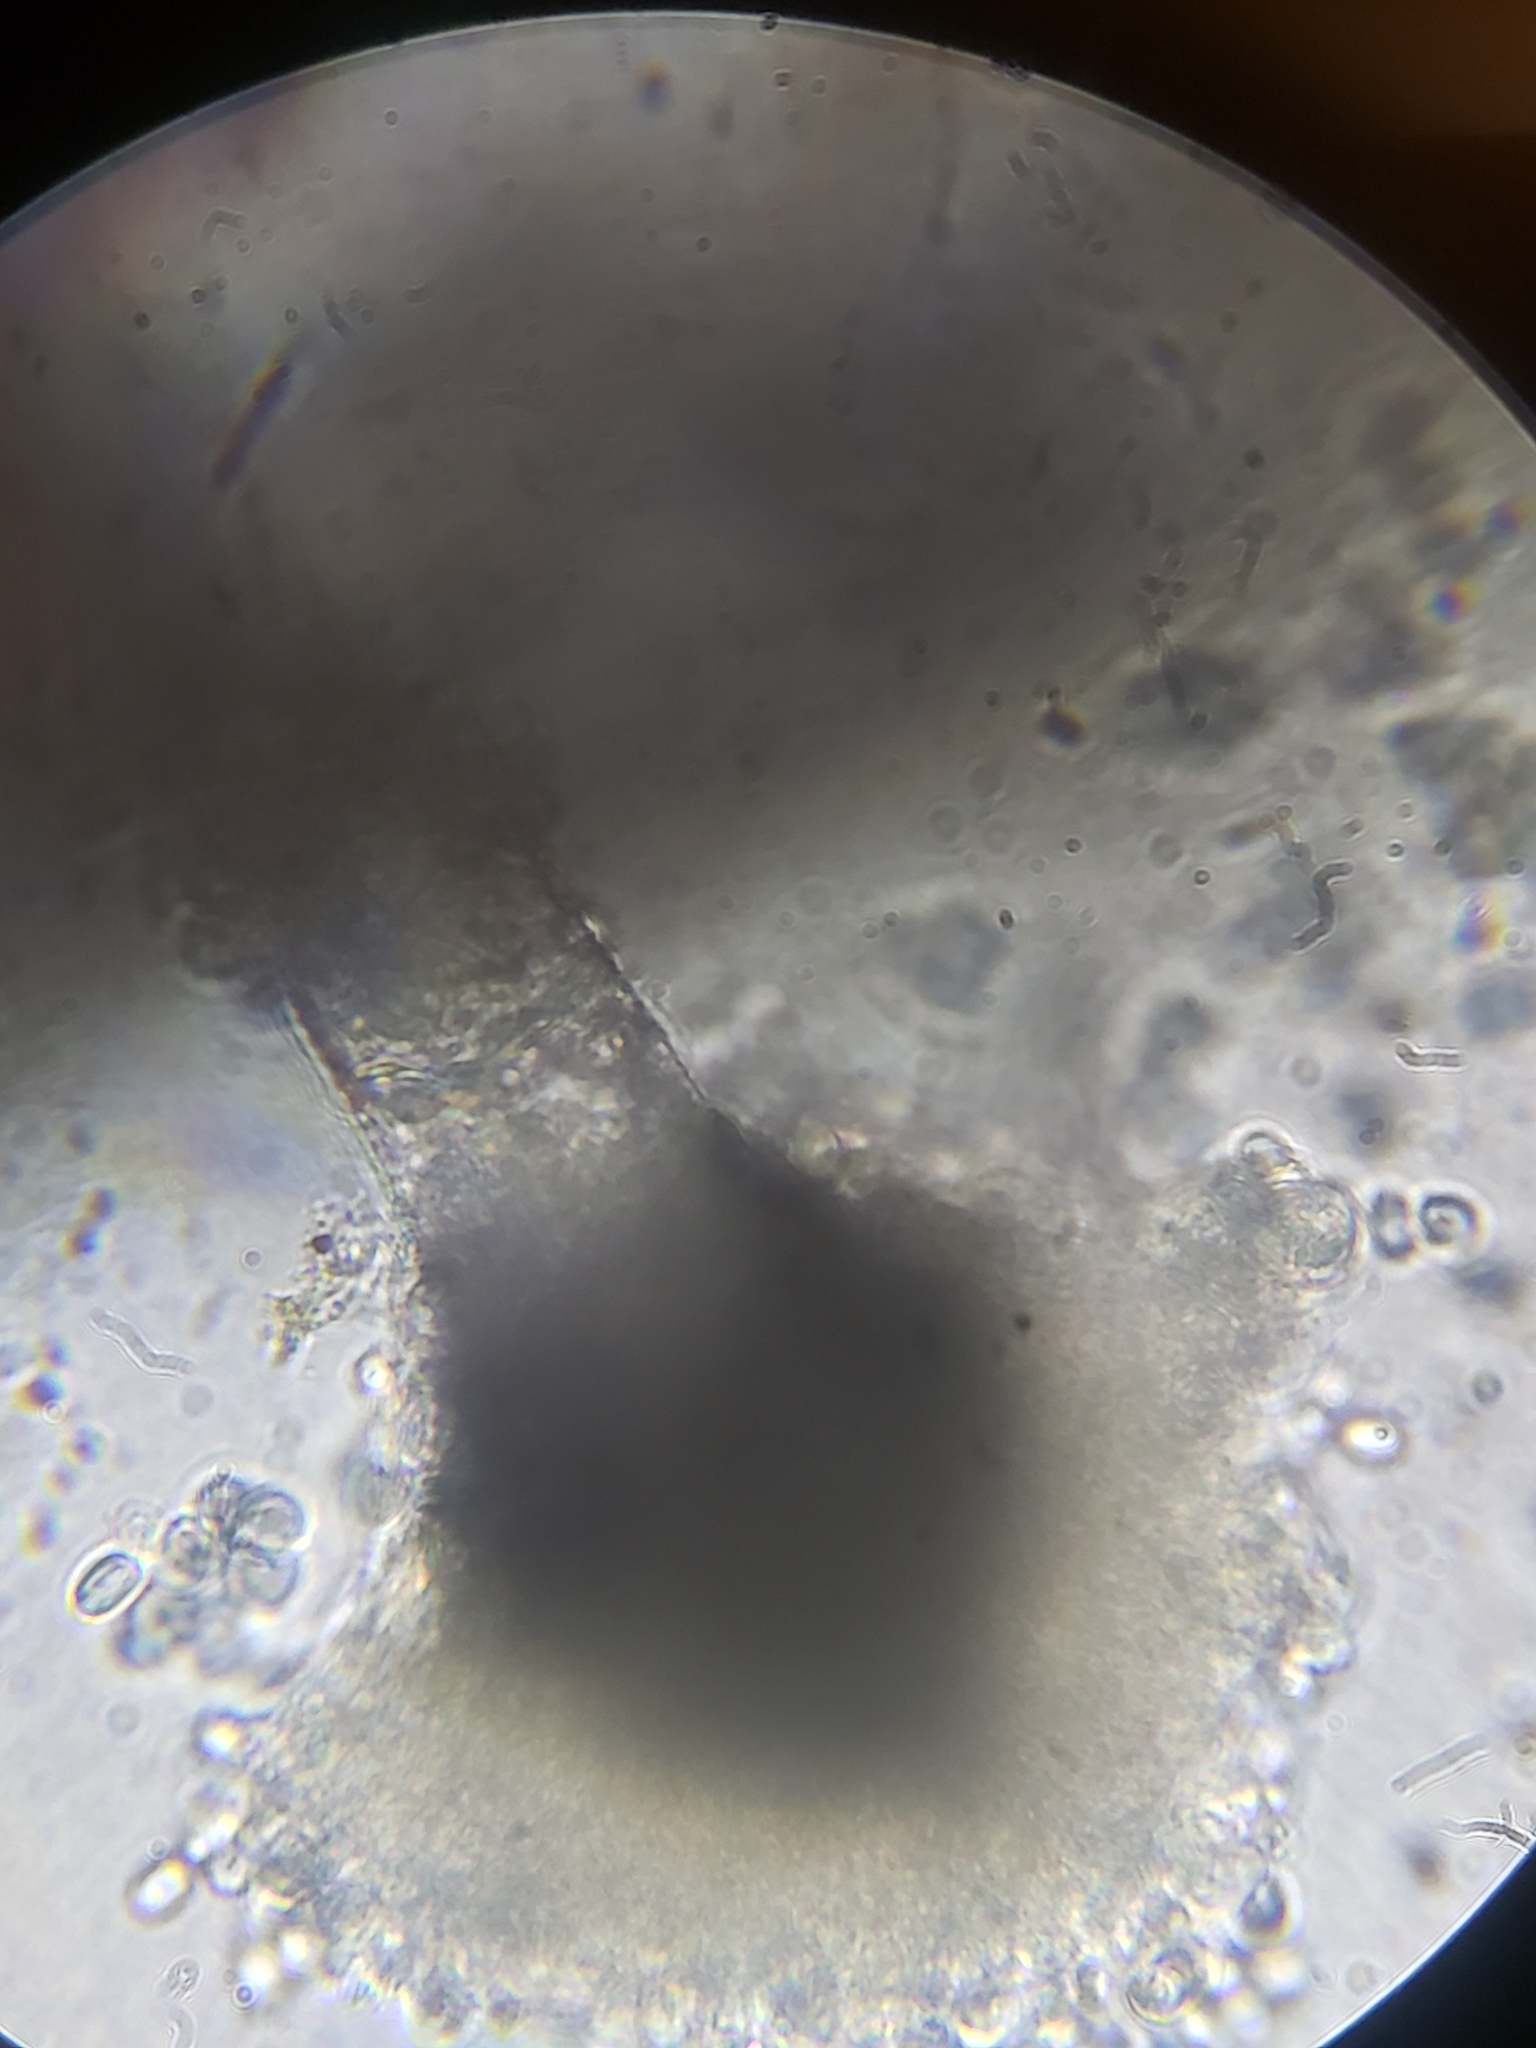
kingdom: Fungi
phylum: Ascomycota
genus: Gloiosphaera
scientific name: Gloiosphaera
